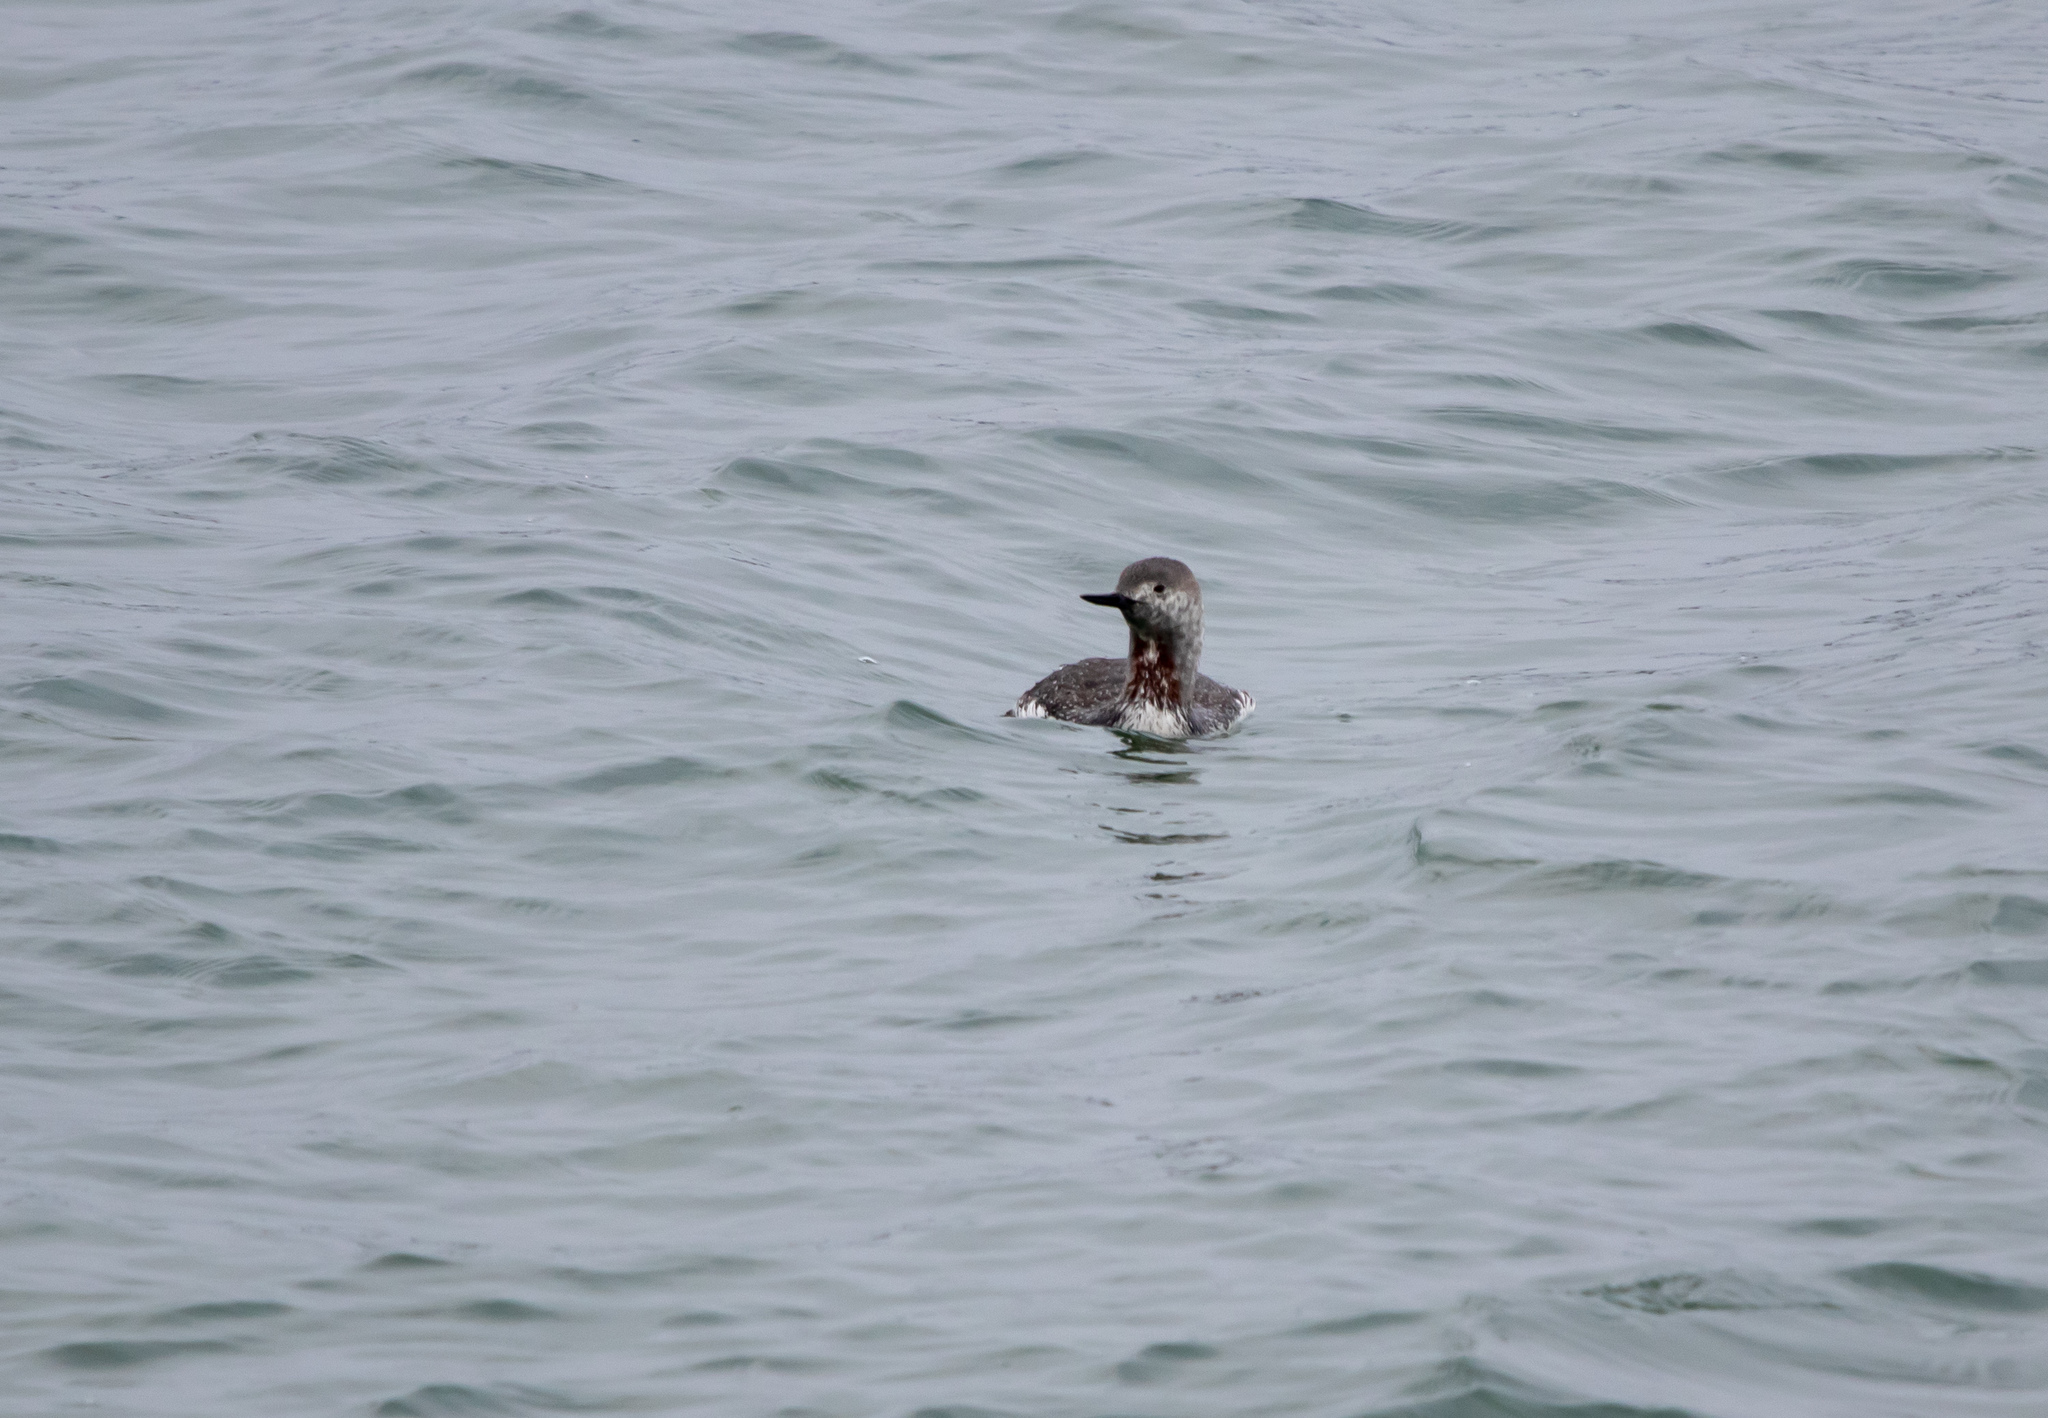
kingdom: Animalia
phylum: Chordata
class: Aves
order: Gaviiformes
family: Gaviidae
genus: Gavia
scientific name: Gavia stellata
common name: Red-throated loon
